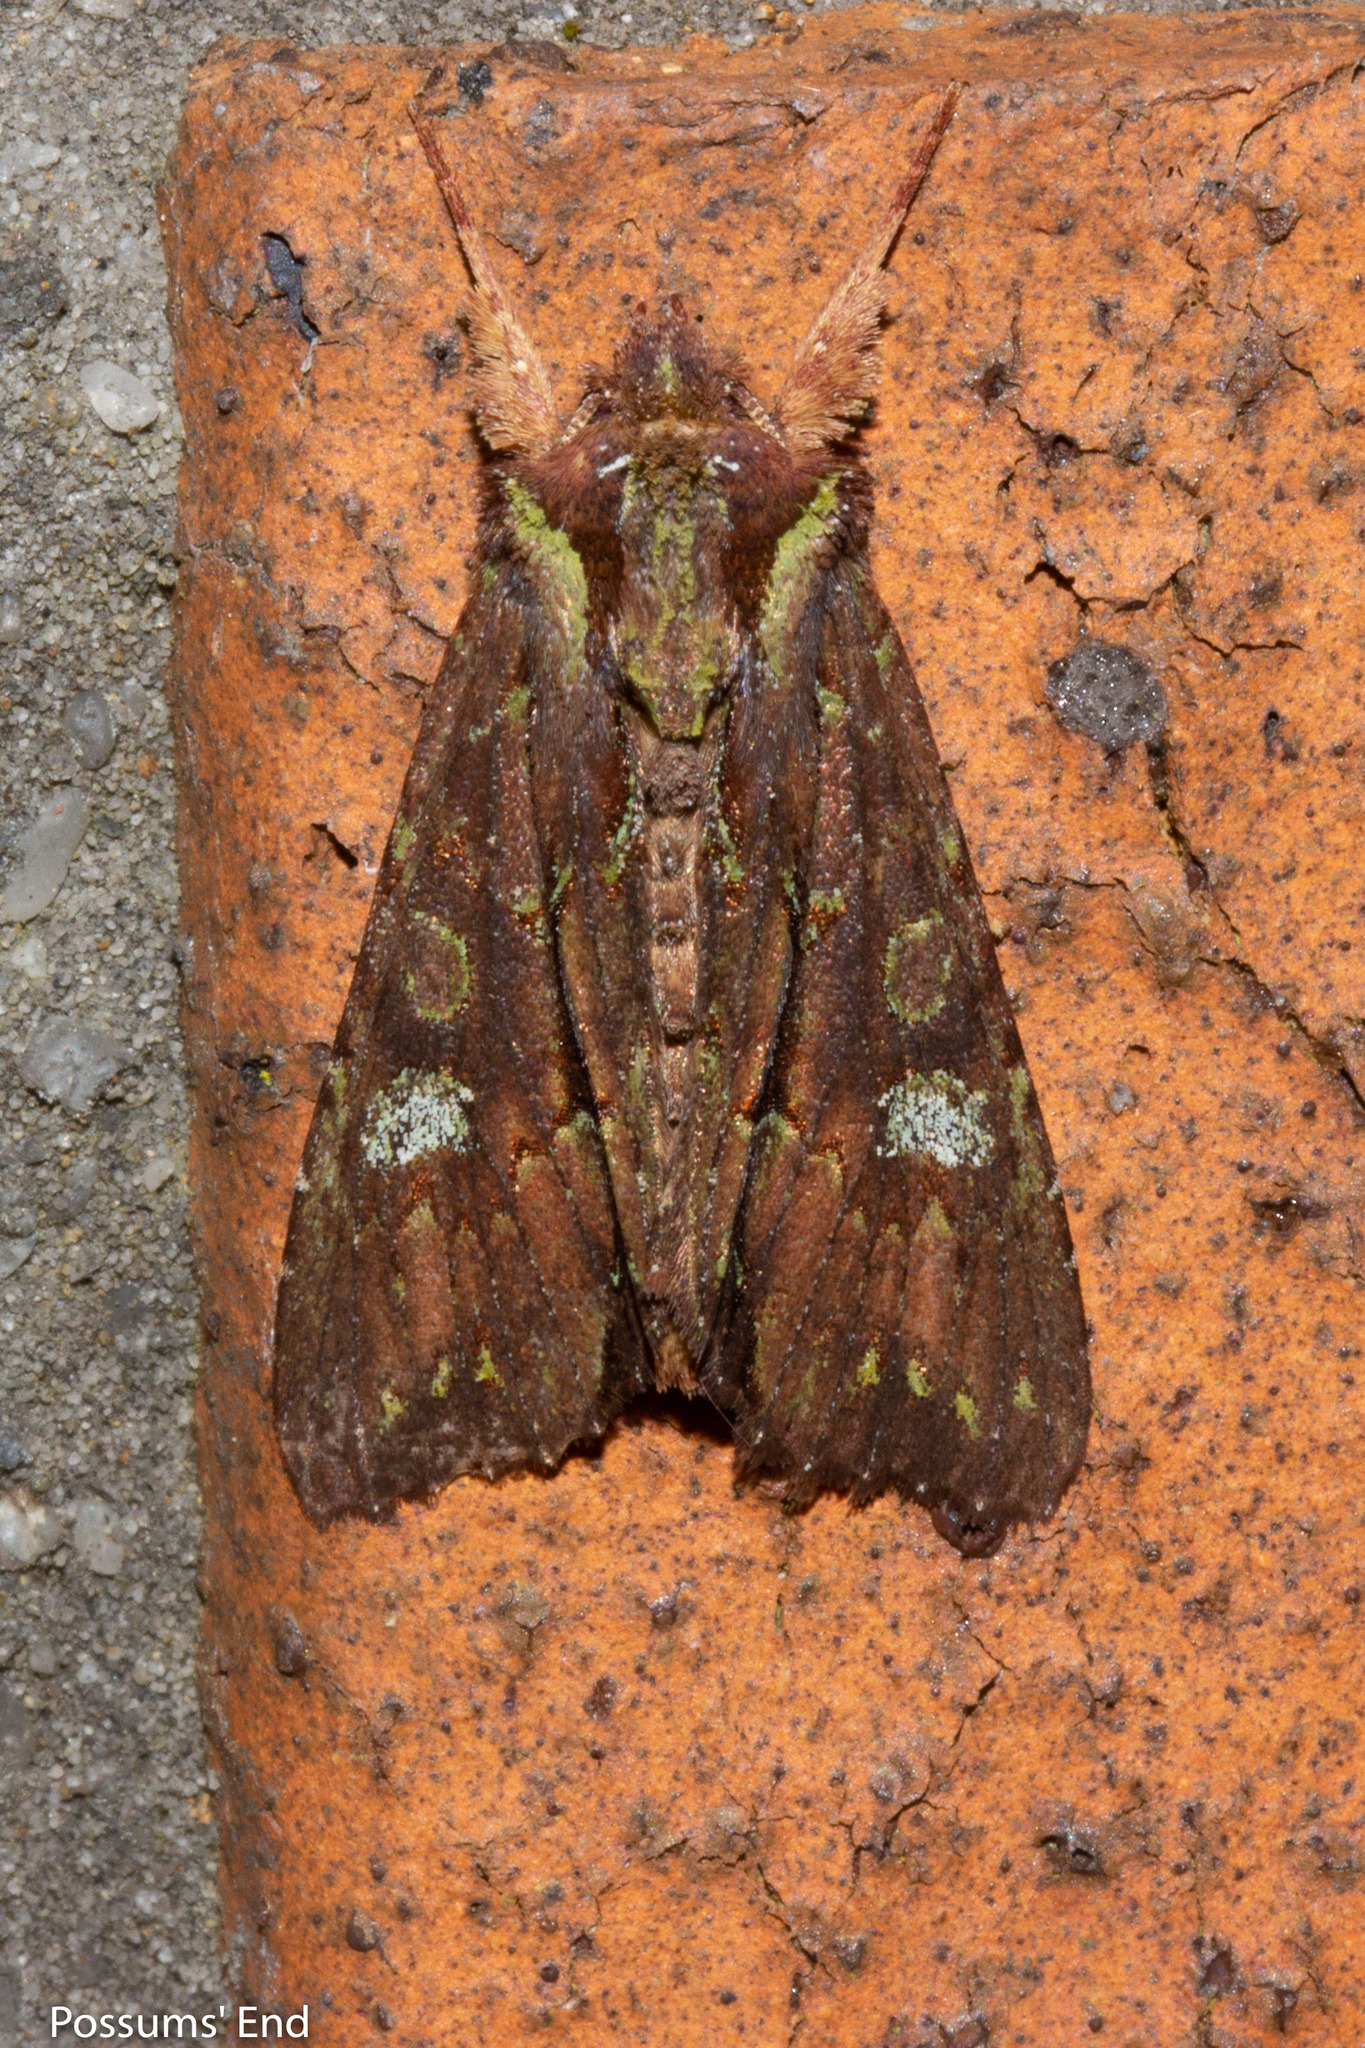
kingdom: Animalia
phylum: Arthropoda
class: Insecta
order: Lepidoptera
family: Noctuidae
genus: Meterana
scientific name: Meterana diatmeta
